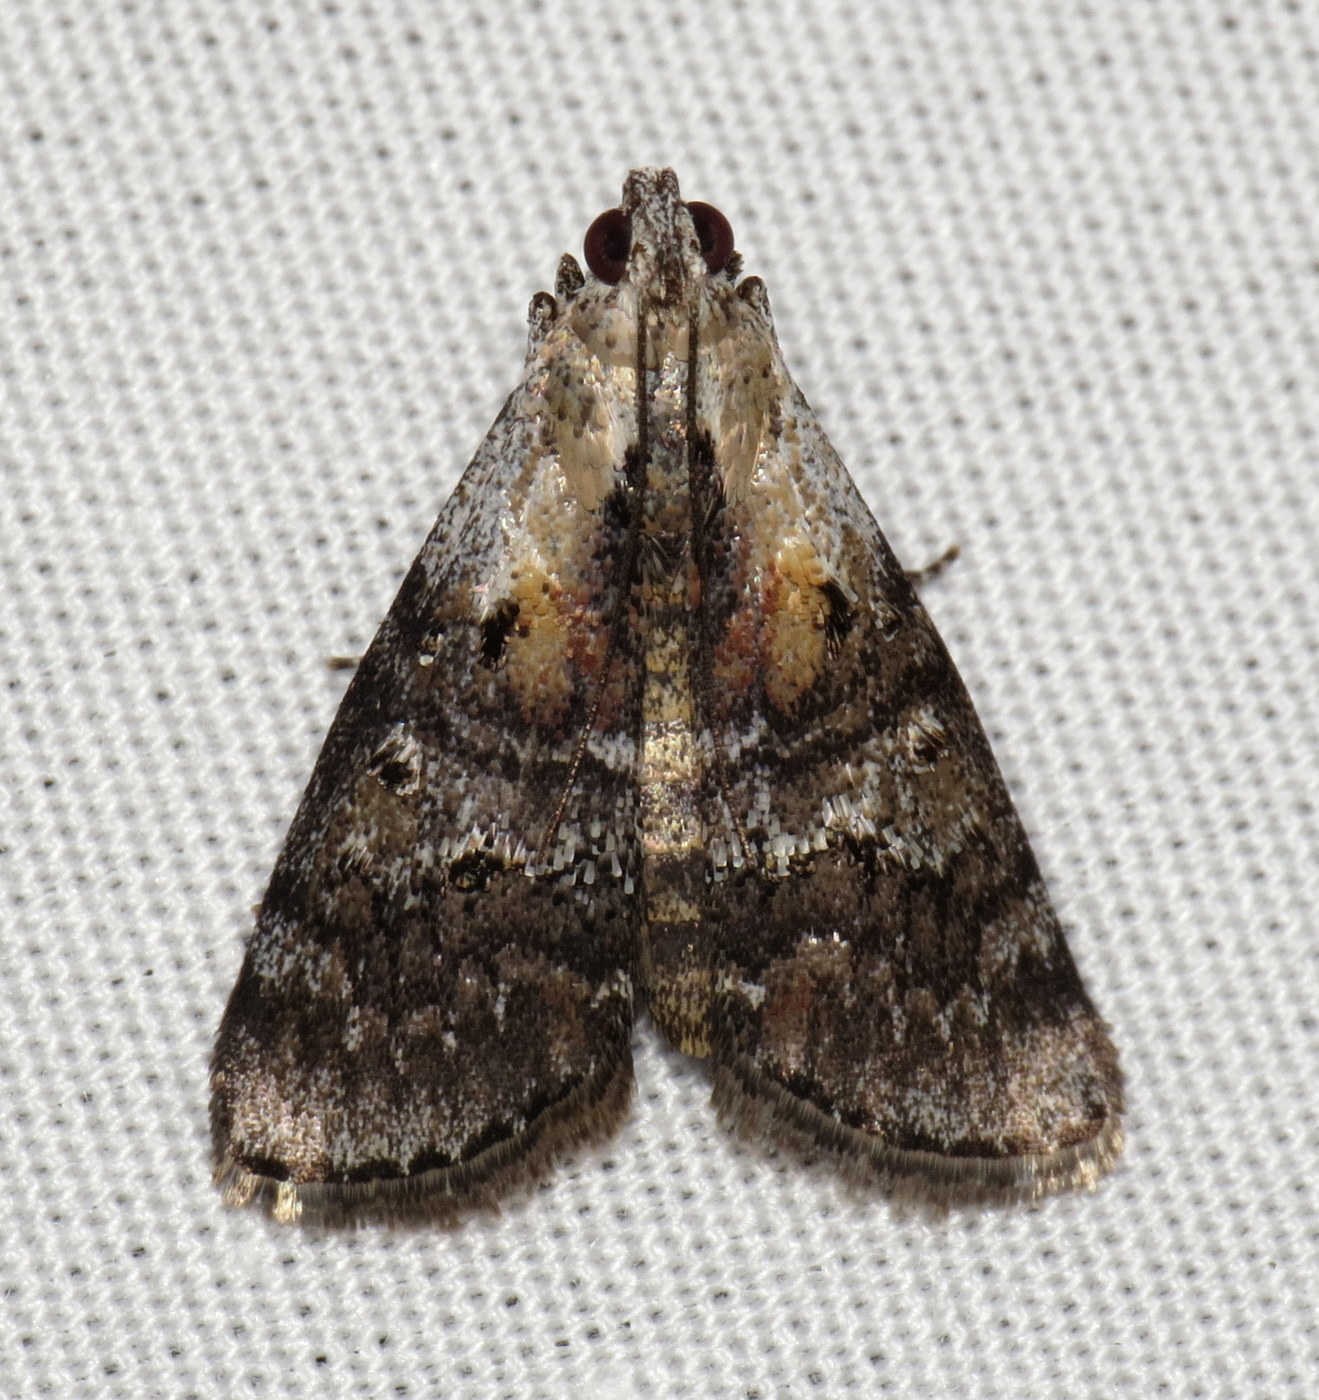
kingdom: Animalia
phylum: Arthropoda
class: Insecta
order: Lepidoptera
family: Pyralidae
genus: Pococera
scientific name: Pococera expandens
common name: Striped oak webworm moth
